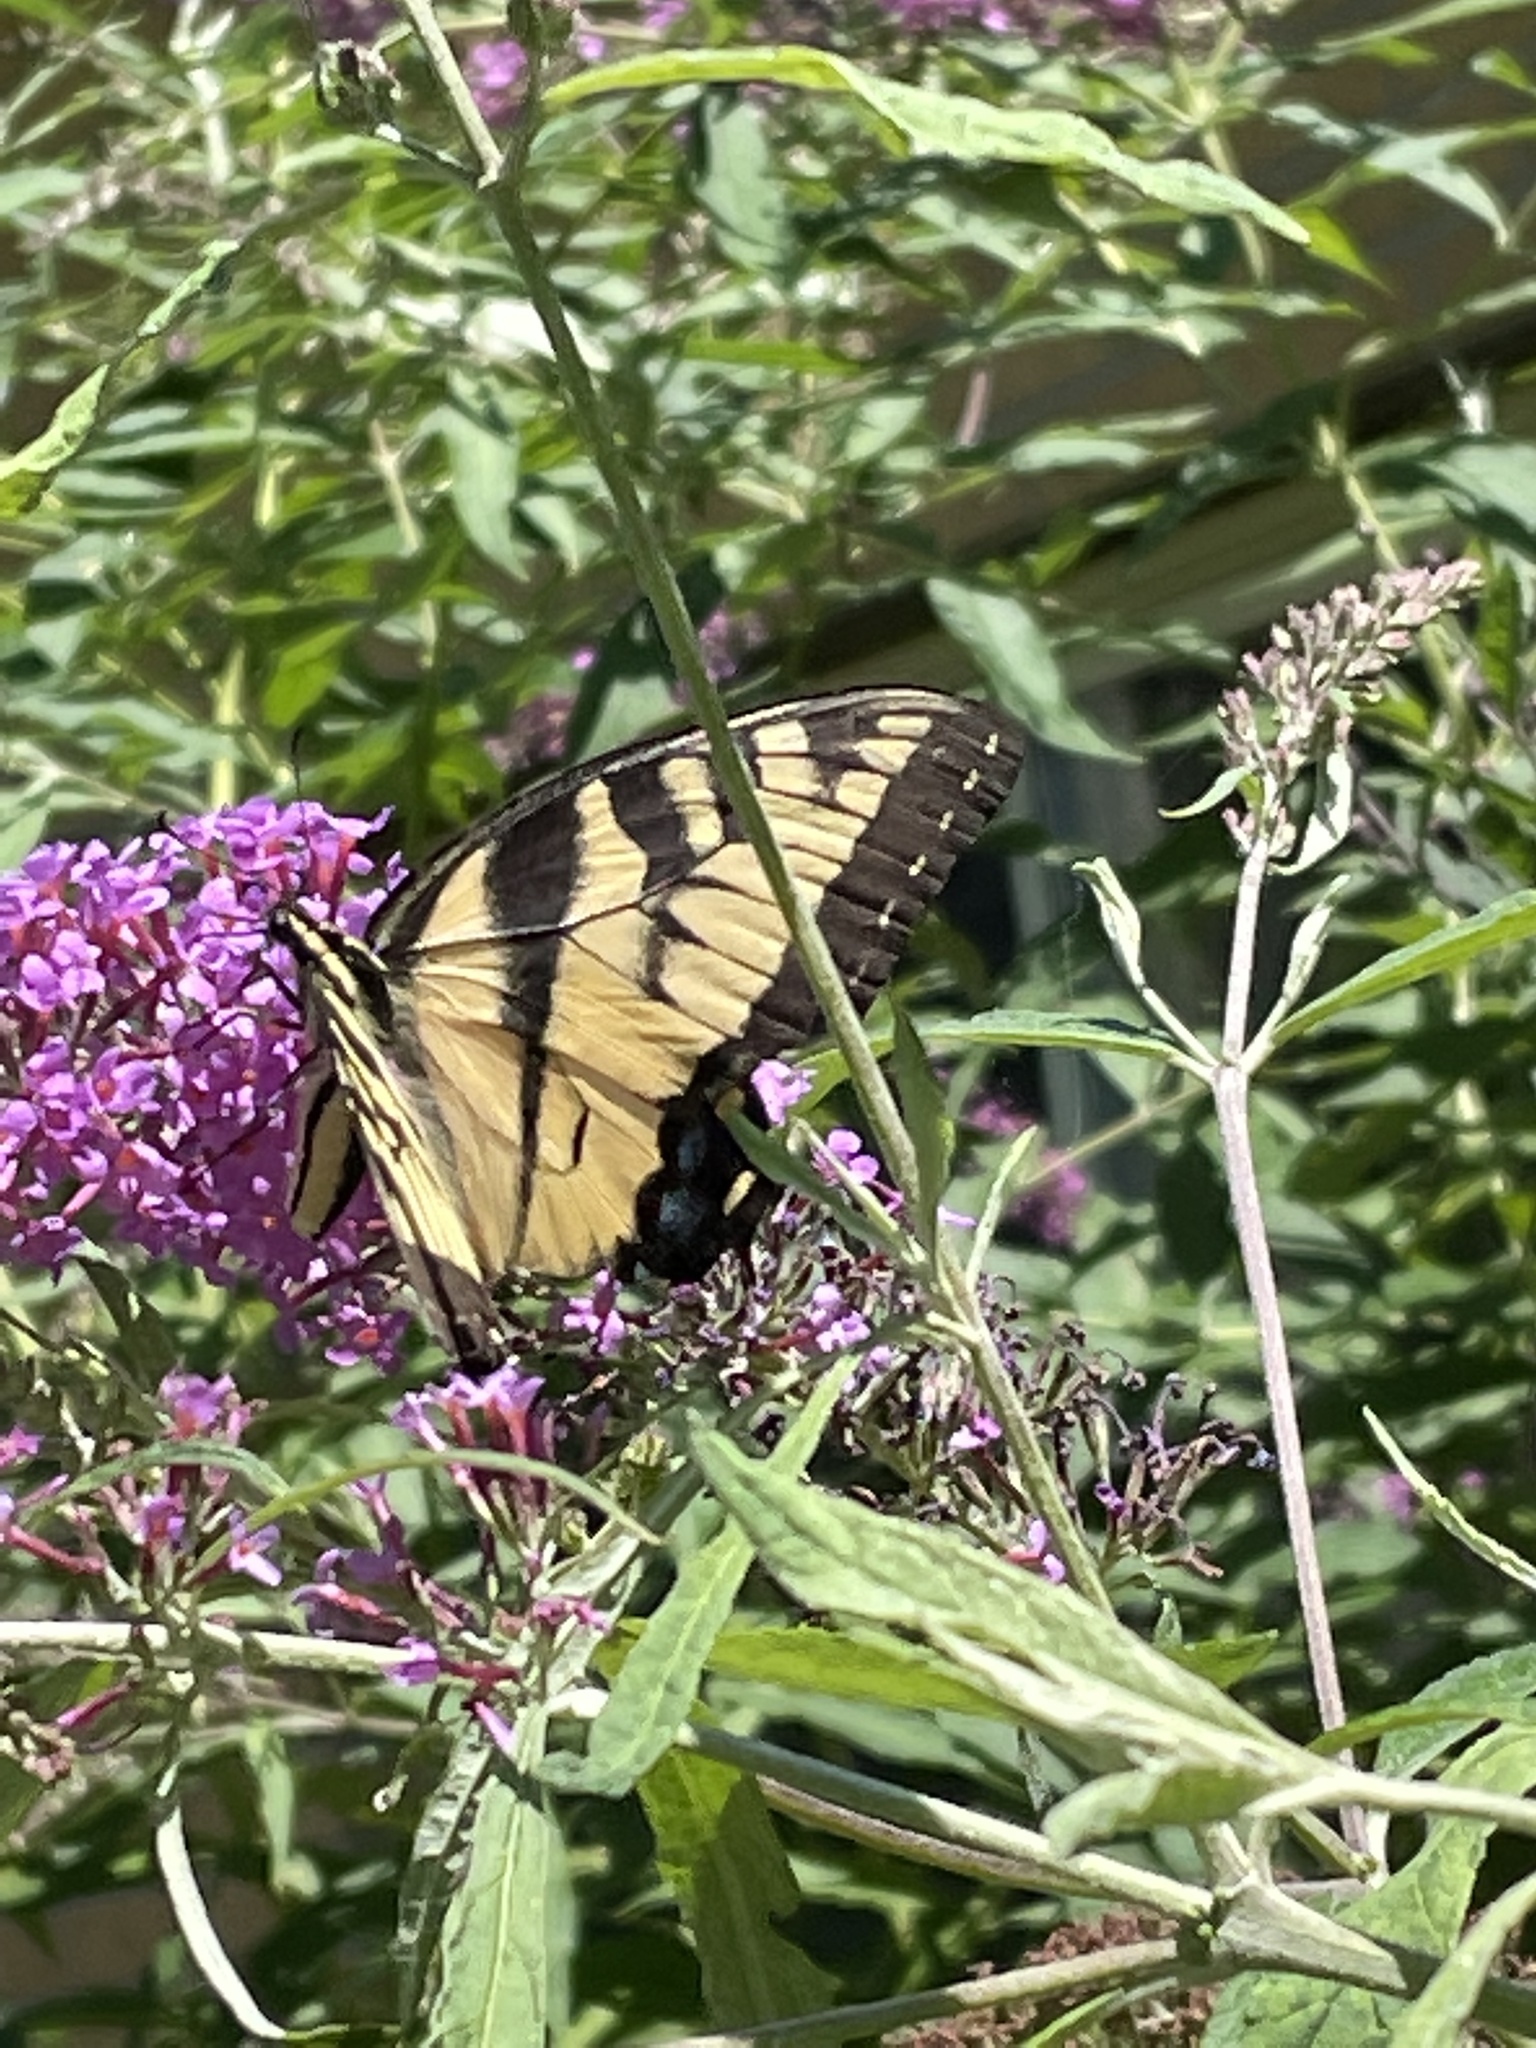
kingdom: Animalia
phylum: Arthropoda
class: Insecta
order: Lepidoptera
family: Papilionidae
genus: Papilio
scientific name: Papilio glaucus
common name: Tiger swallowtail
